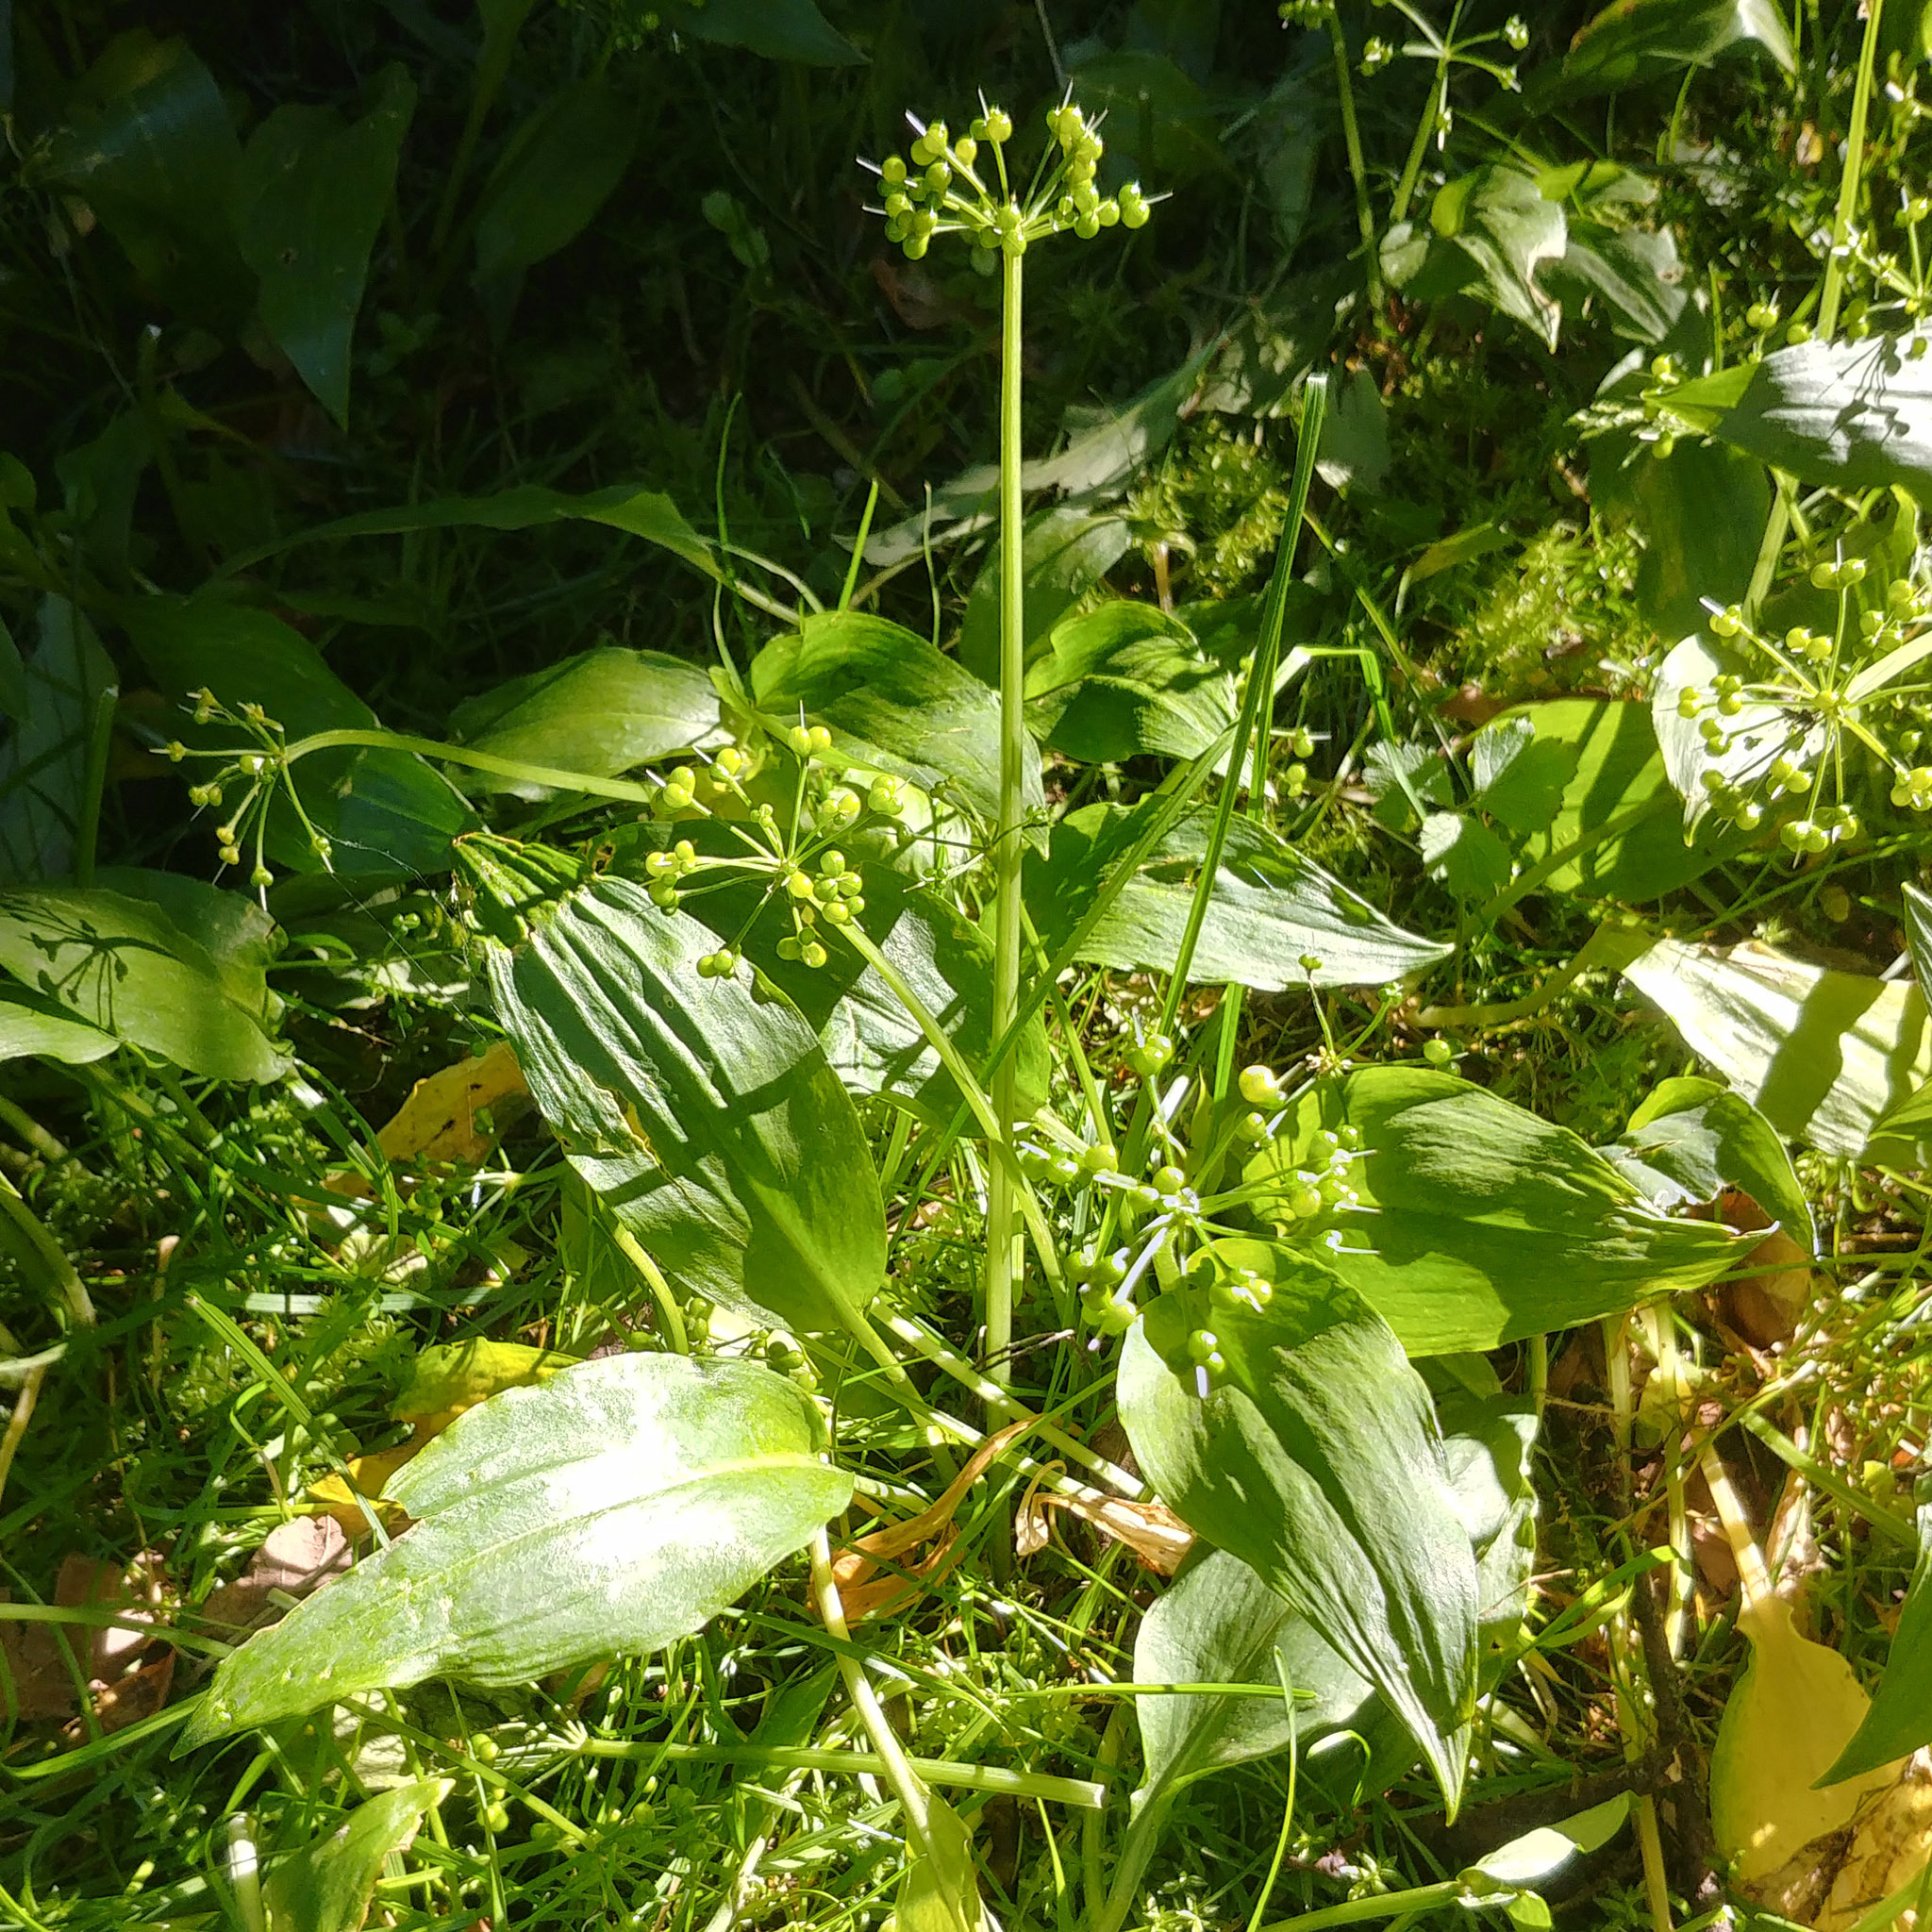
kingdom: Plantae
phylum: Tracheophyta
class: Liliopsida
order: Asparagales
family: Amaryllidaceae
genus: Allium
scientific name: Allium ursinum
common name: Ramsons
